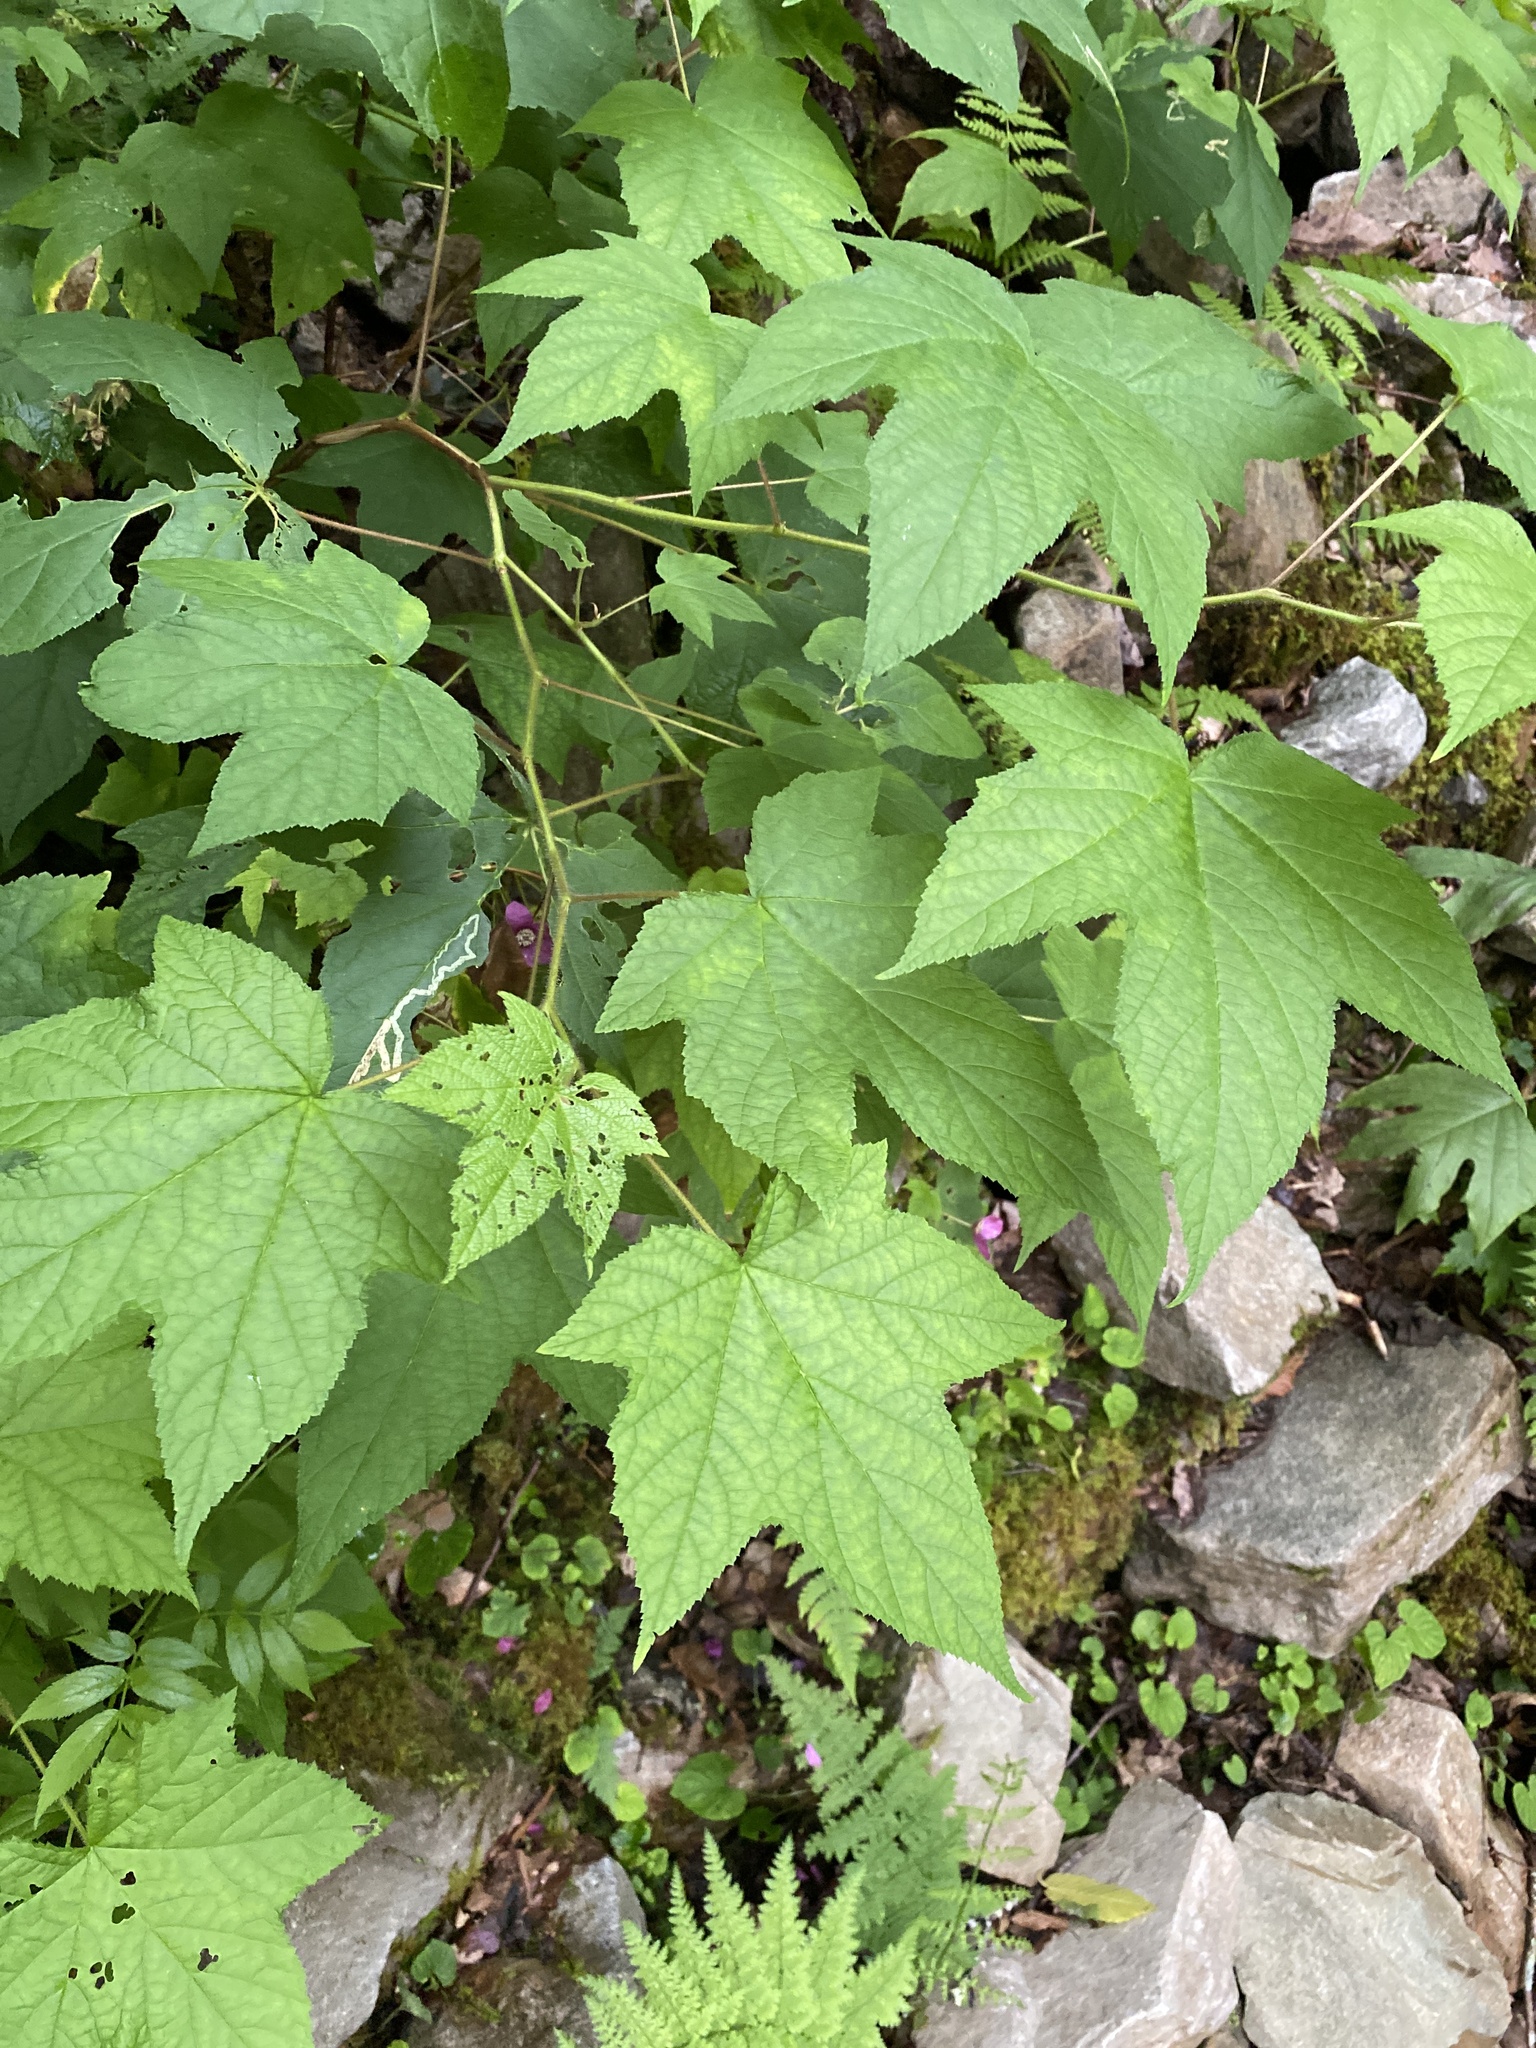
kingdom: Plantae
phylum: Tracheophyta
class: Magnoliopsida
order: Rosales
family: Rosaceae
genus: Rubus
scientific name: Rubus odoratus
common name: Purple-flowered raspberry
